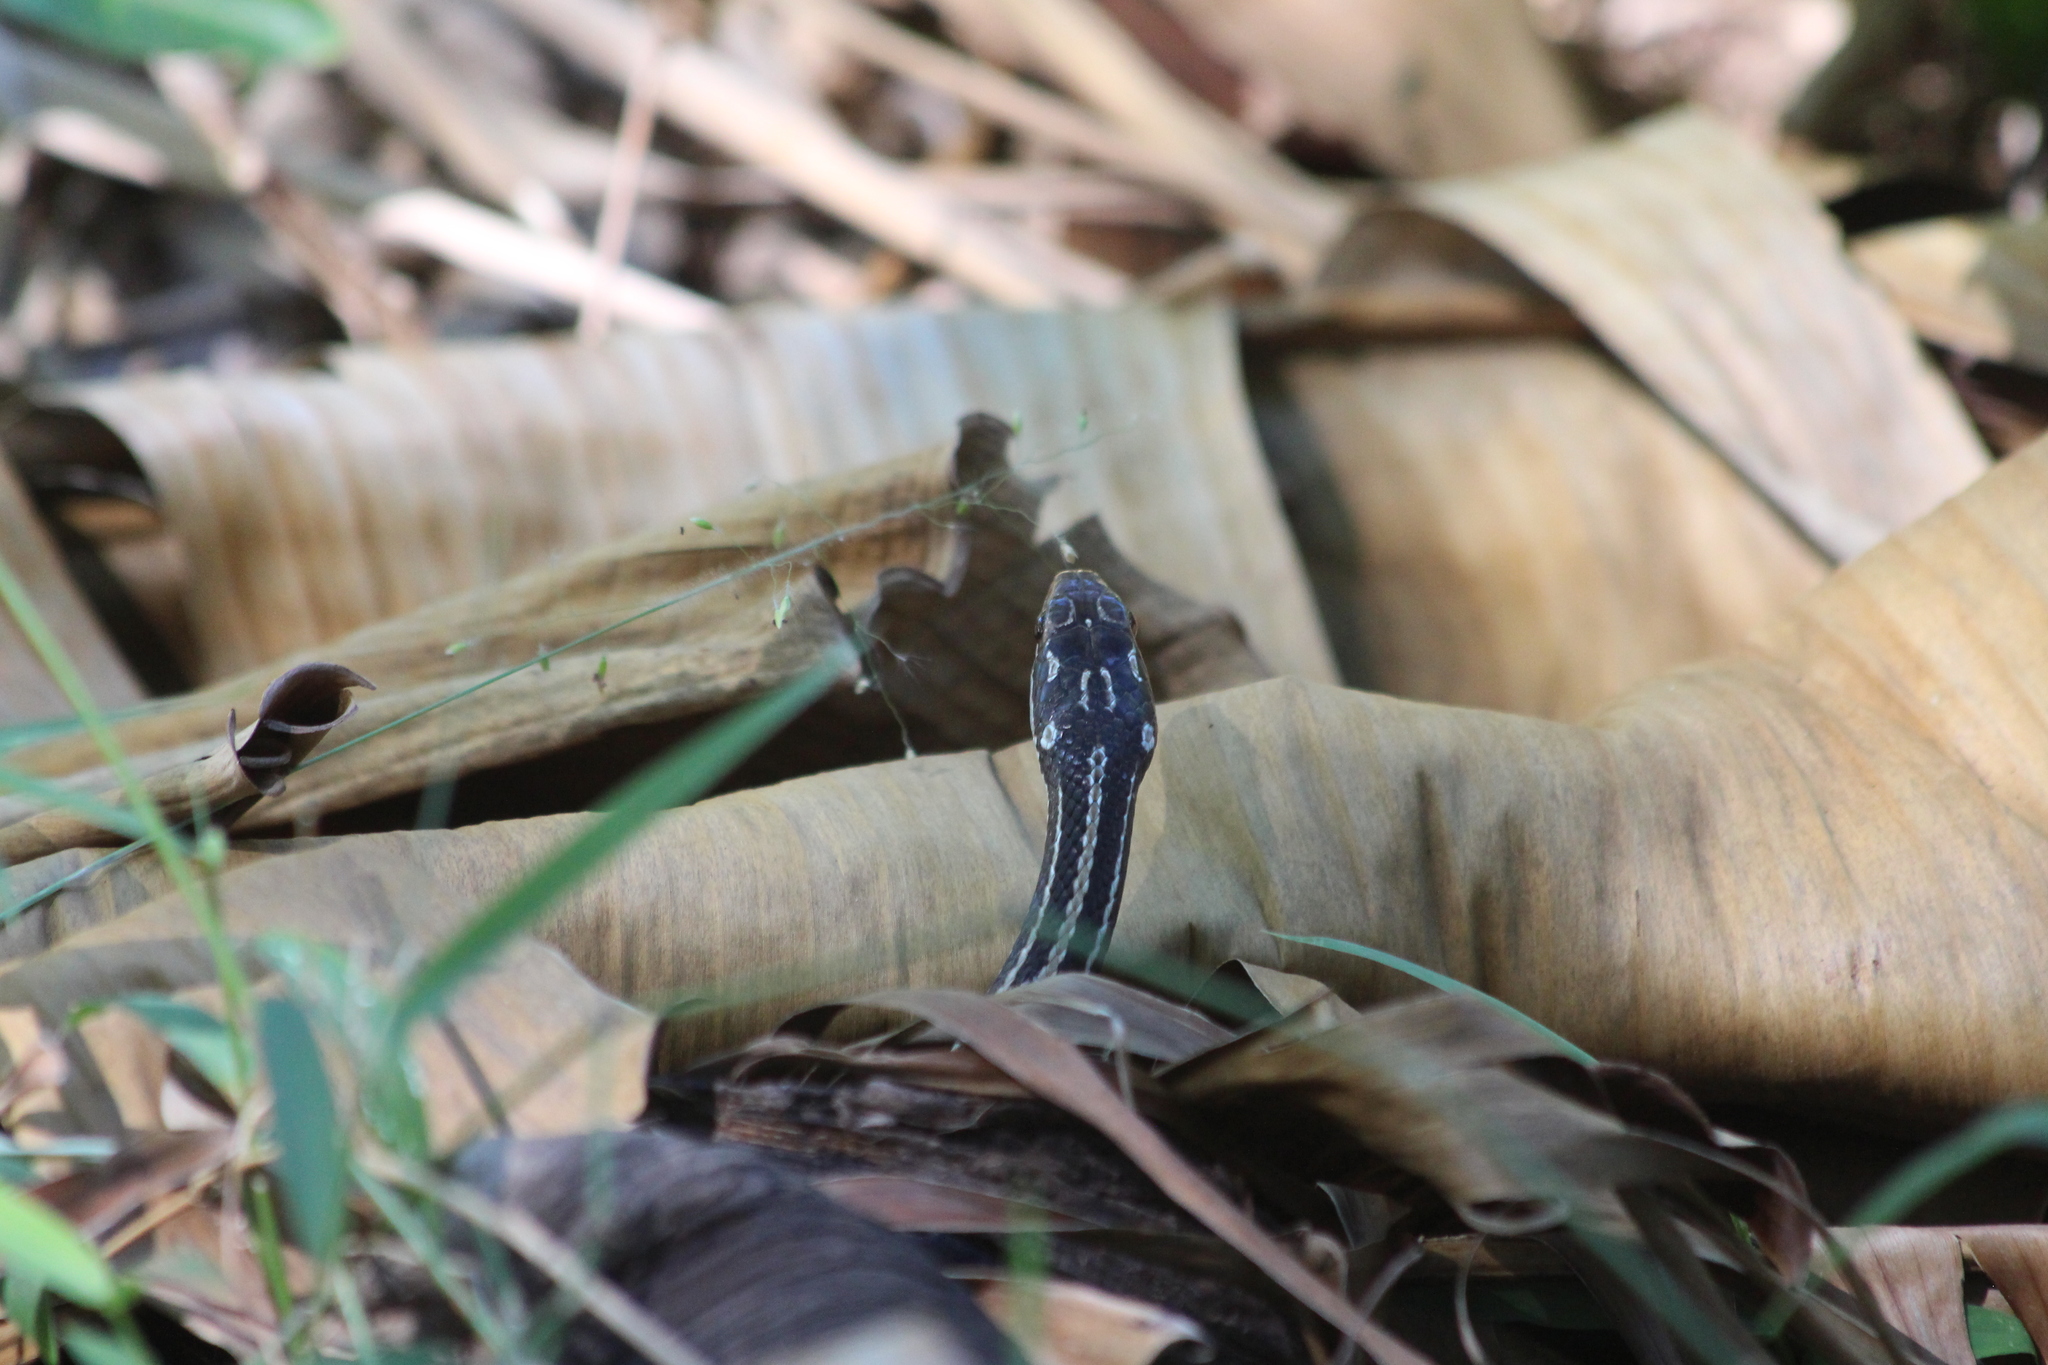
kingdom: Animalia
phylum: Chordata
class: Squamata
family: Pseudoxyrhophiidae
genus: Dromicodryas
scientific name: Dromicodryas quadrilineatus
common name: Four-striped snake
